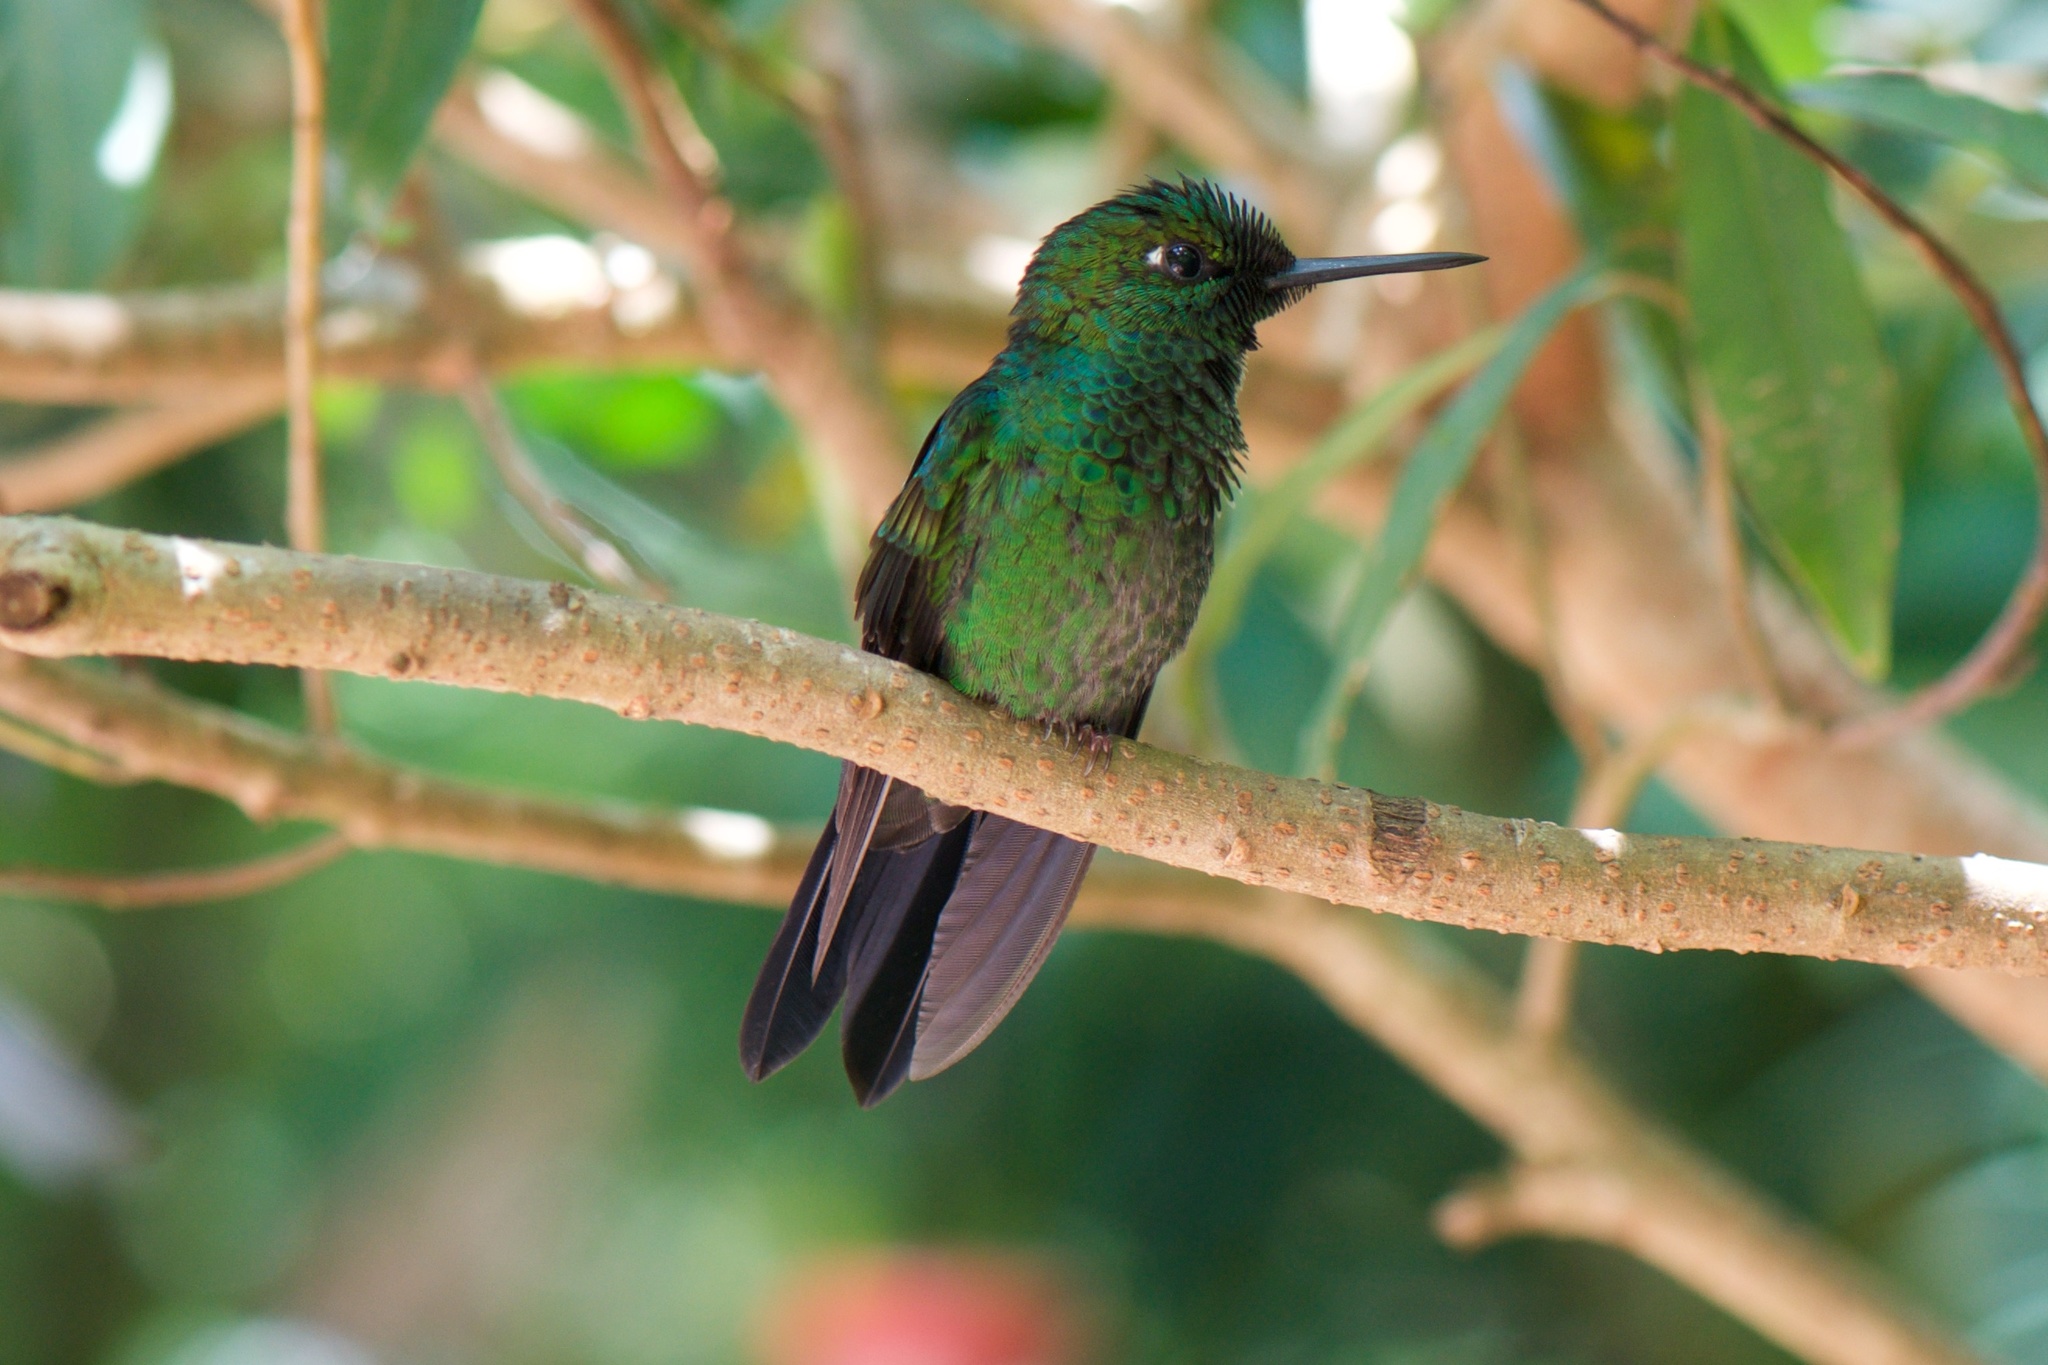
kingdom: Animalia
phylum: Chordata
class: Aves
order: Apodiformes
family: Trochilidae
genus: Heliodoxa
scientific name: Heliodoxa jacula
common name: Green-crowned brilliant
